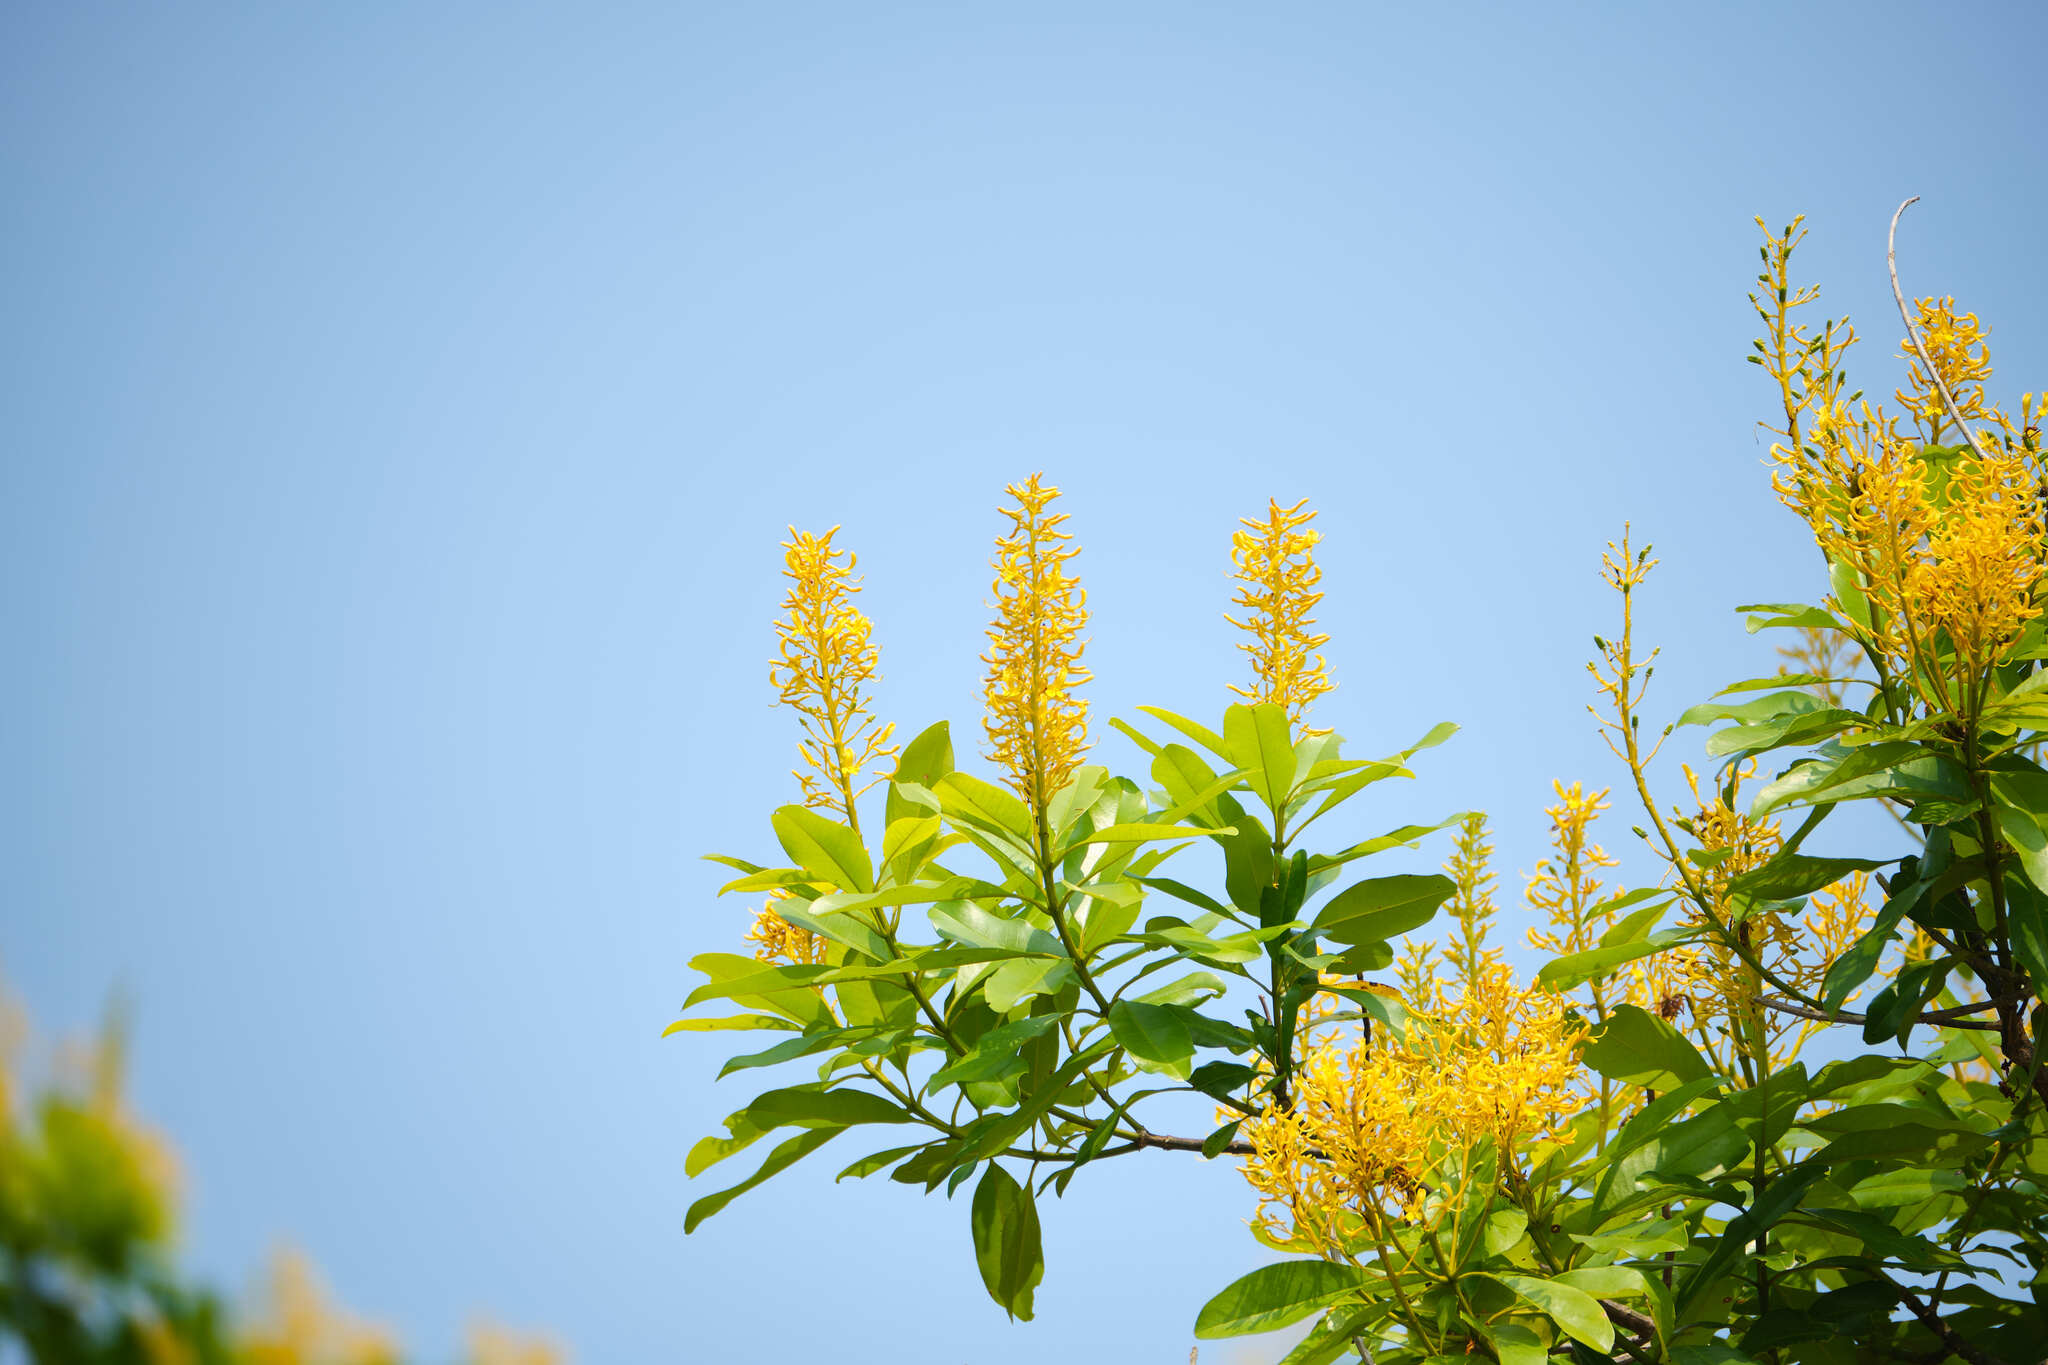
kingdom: Plantae
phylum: Tracheophyta
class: Magnoliopsida
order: Myrtales
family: Vochysiaceae
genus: Vochysia
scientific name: Vochysia guatemalensis
